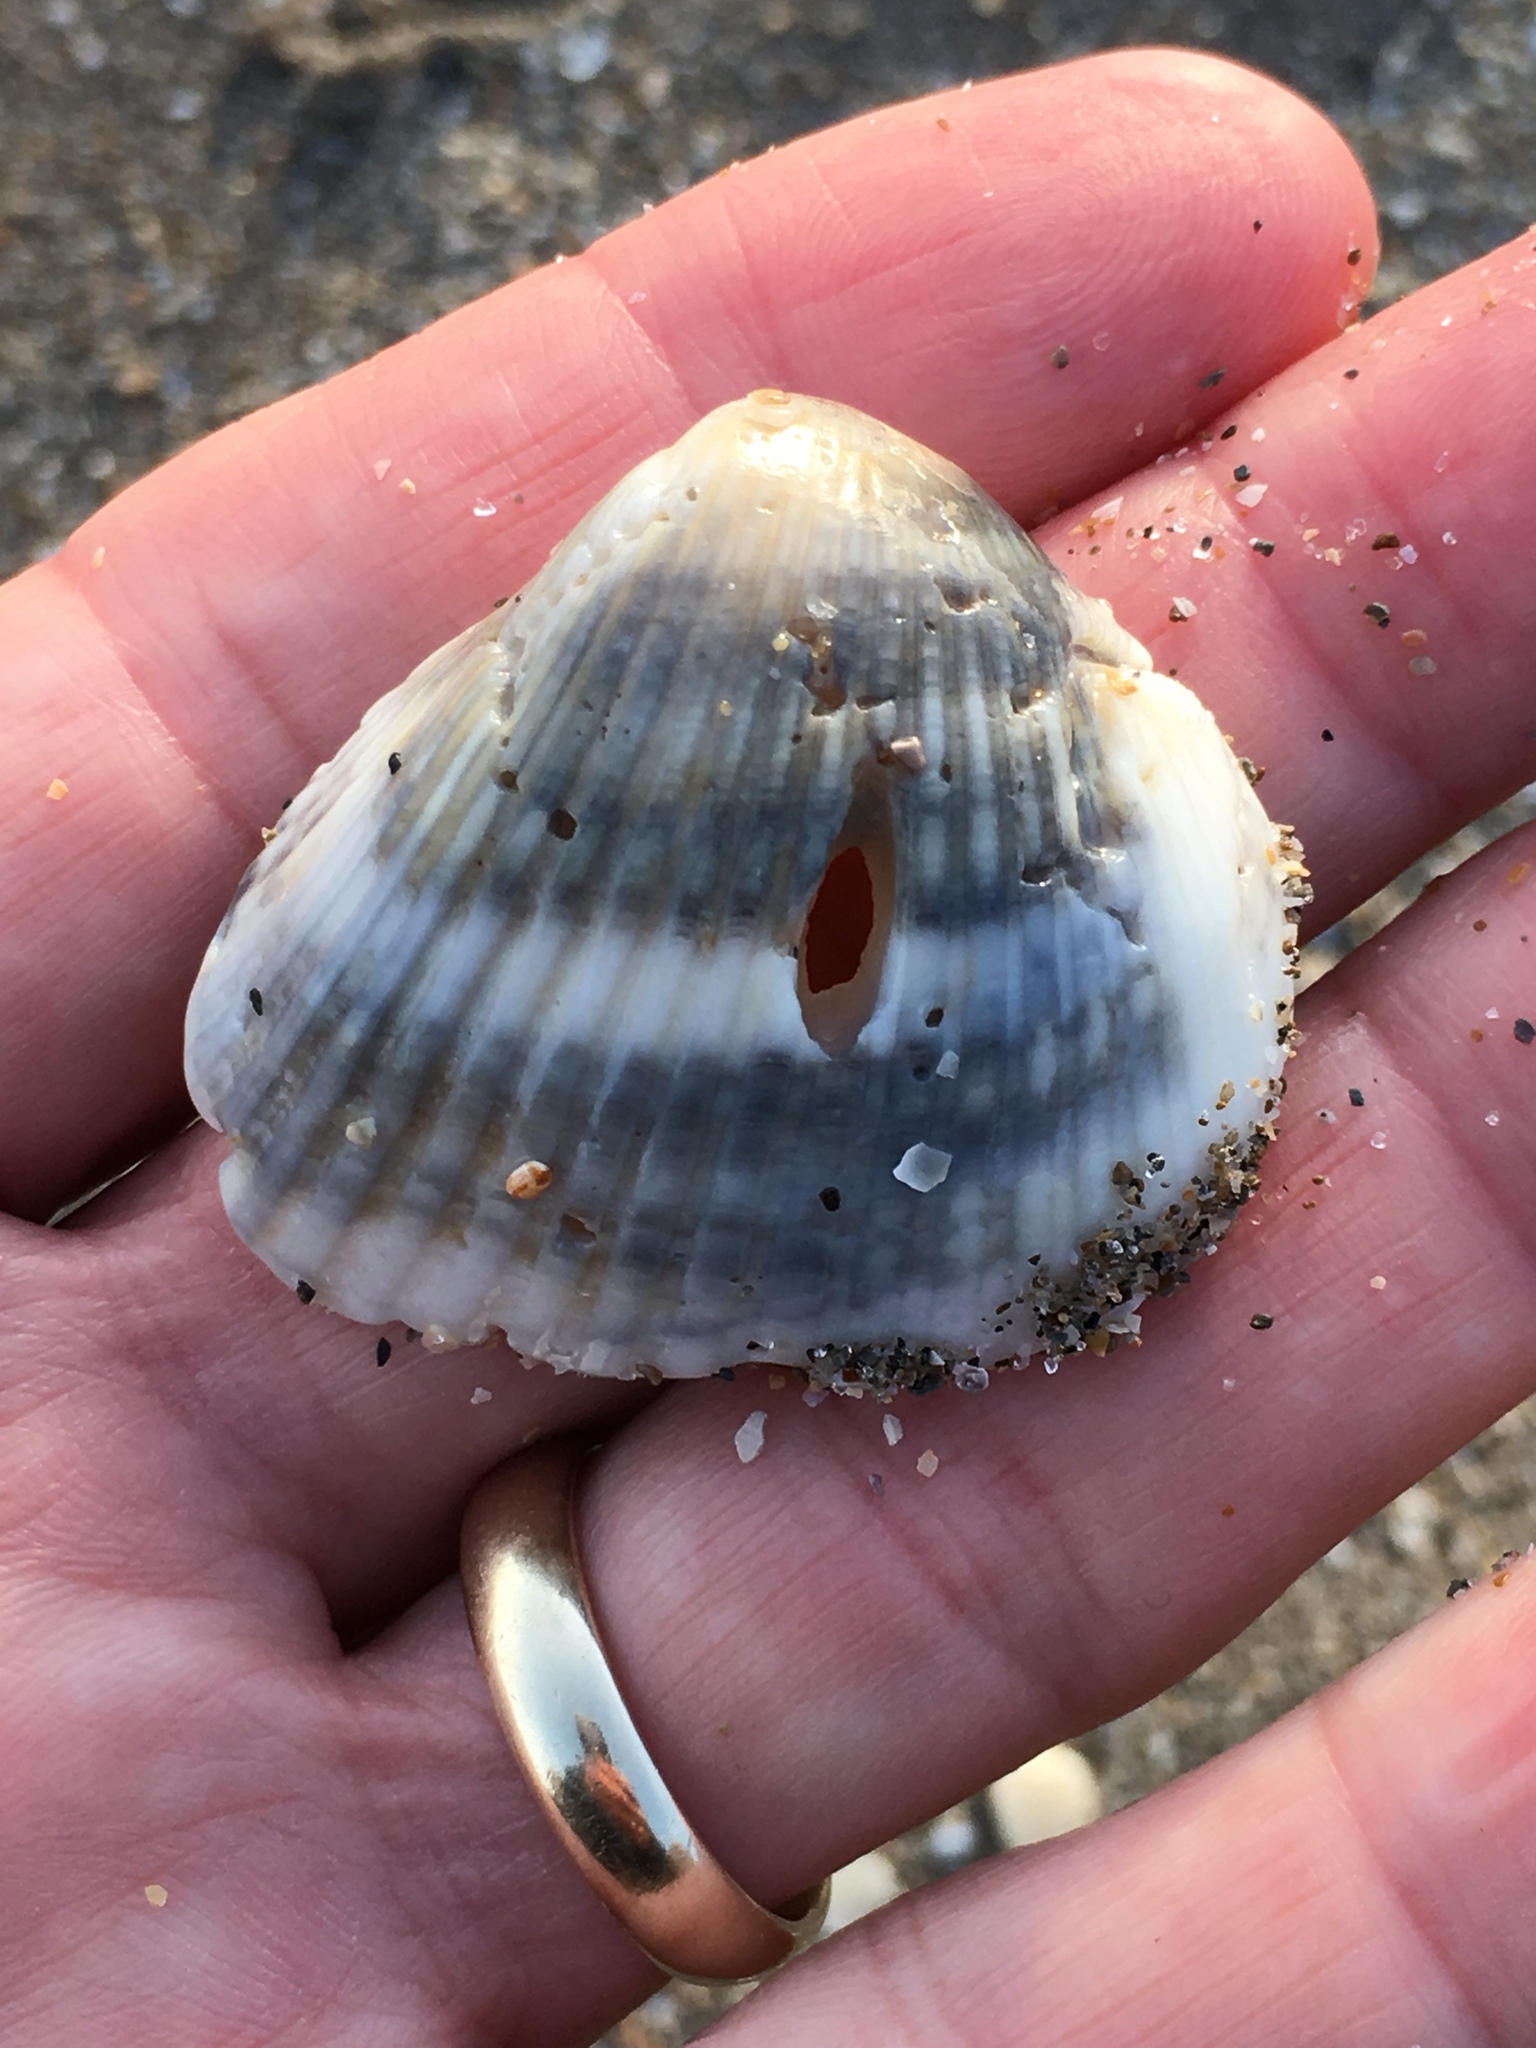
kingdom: Animalia
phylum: Mollusca
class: Bivalvia
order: Arcida
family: Noetiidae
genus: Noetia
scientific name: Noetia ponderosa
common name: Ponderous ark
